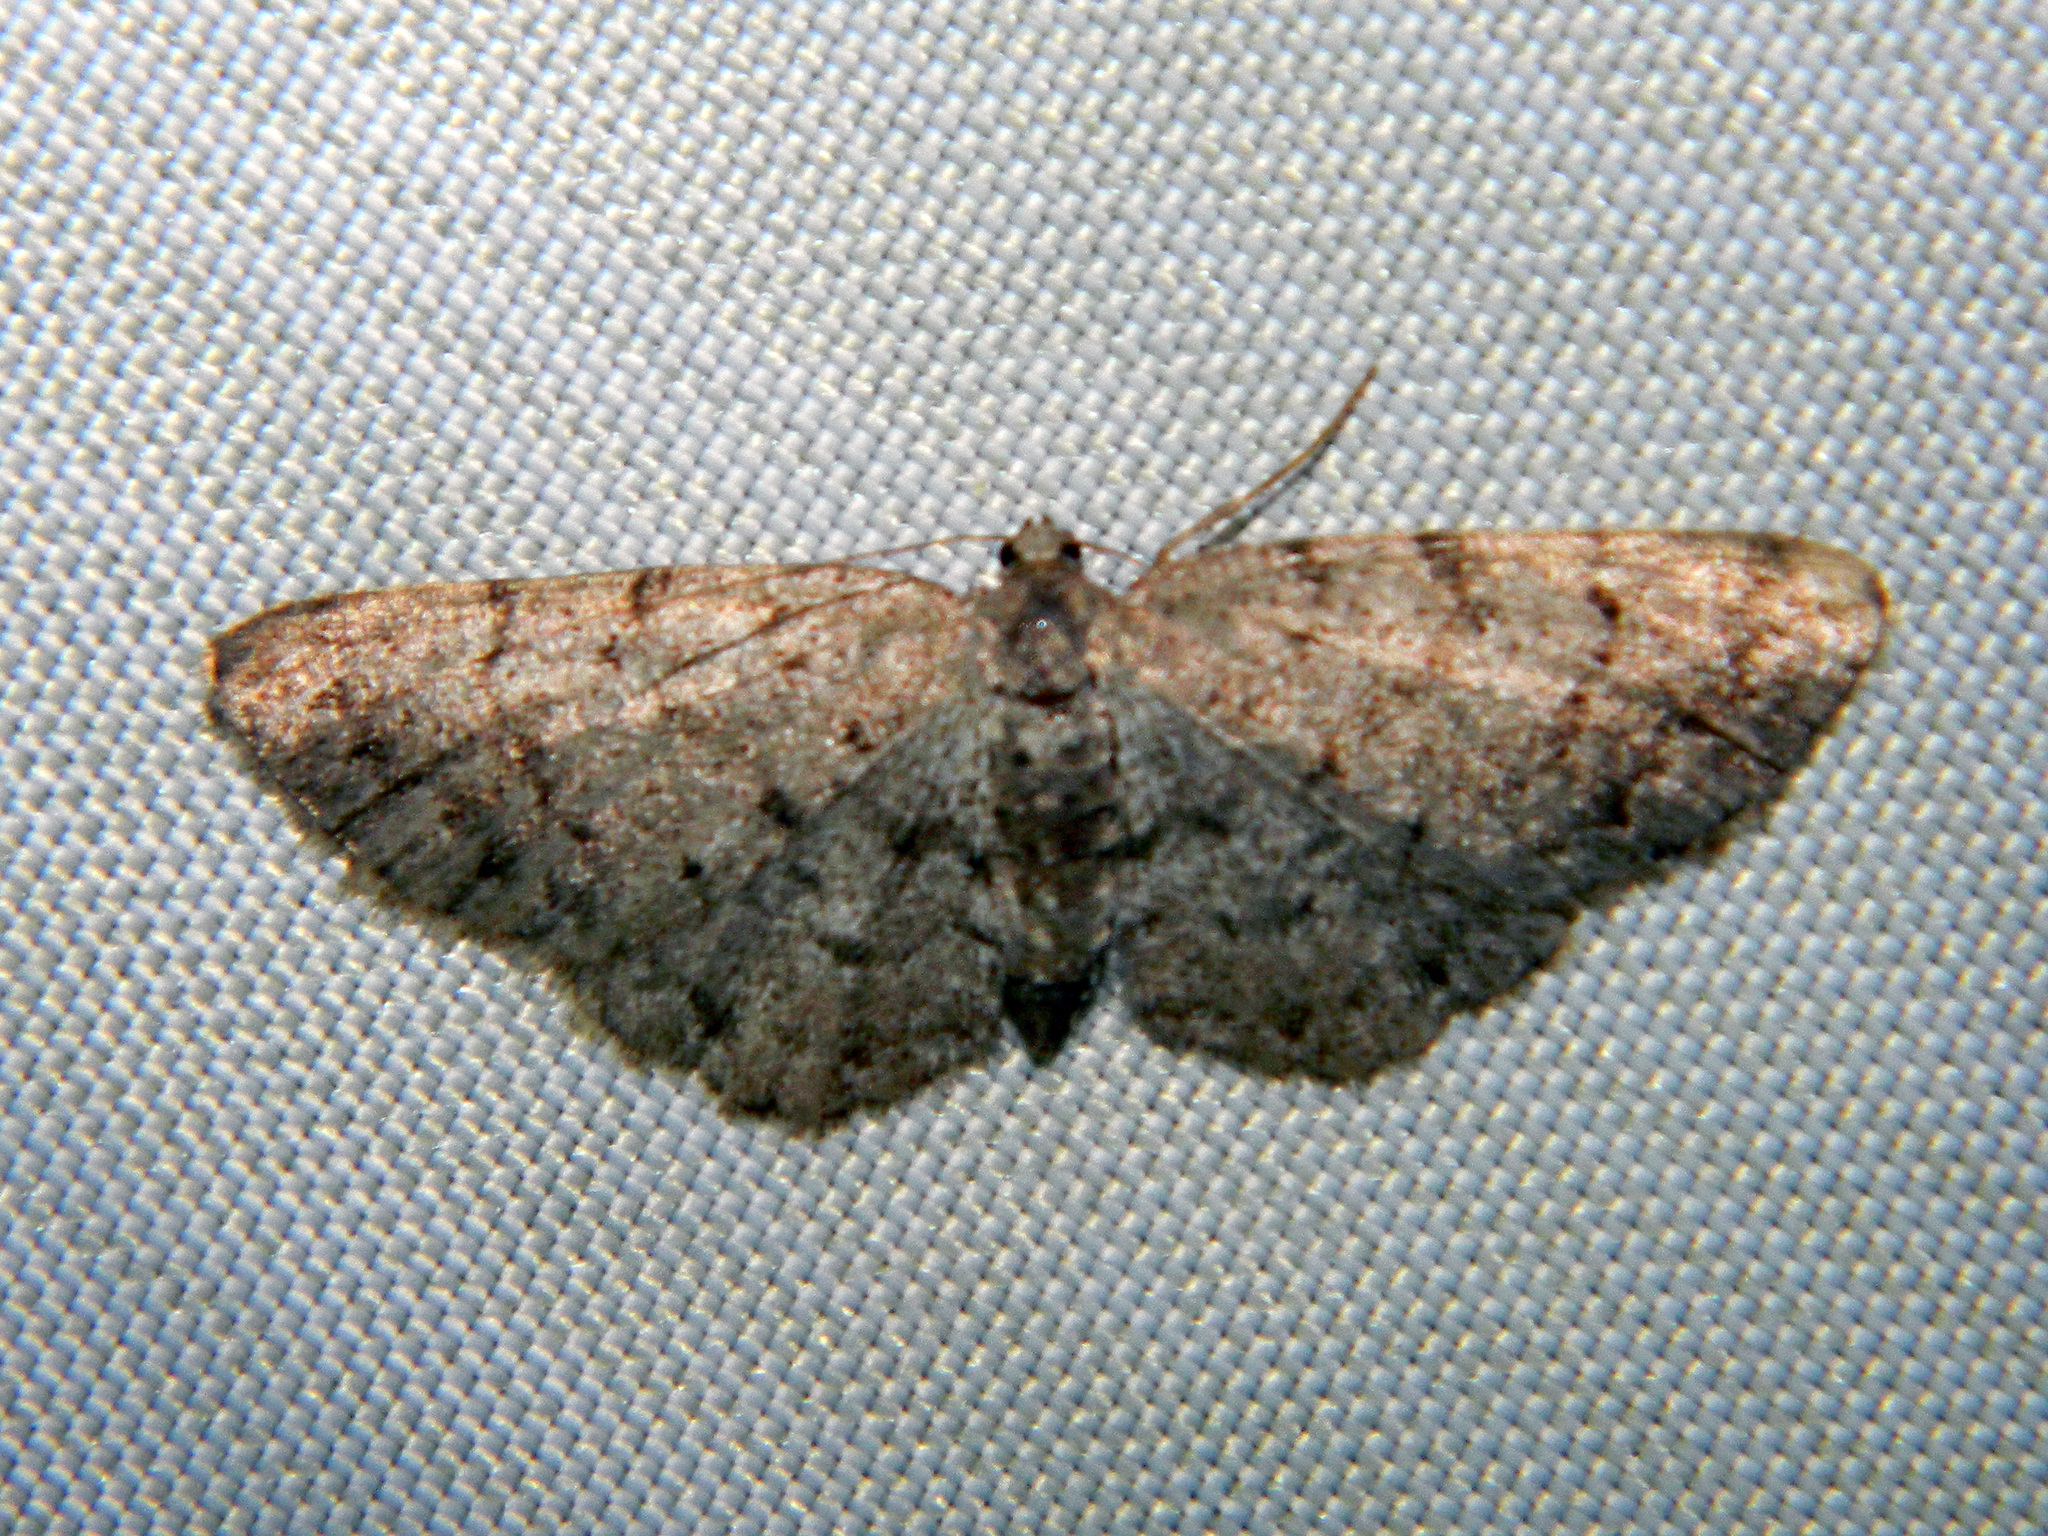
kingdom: Animalia
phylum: Arthropoda
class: Insecta
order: Lepidoptera
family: Geometridae
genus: Aethalura
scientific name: Aethalura intertexta
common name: Four-barred gray
